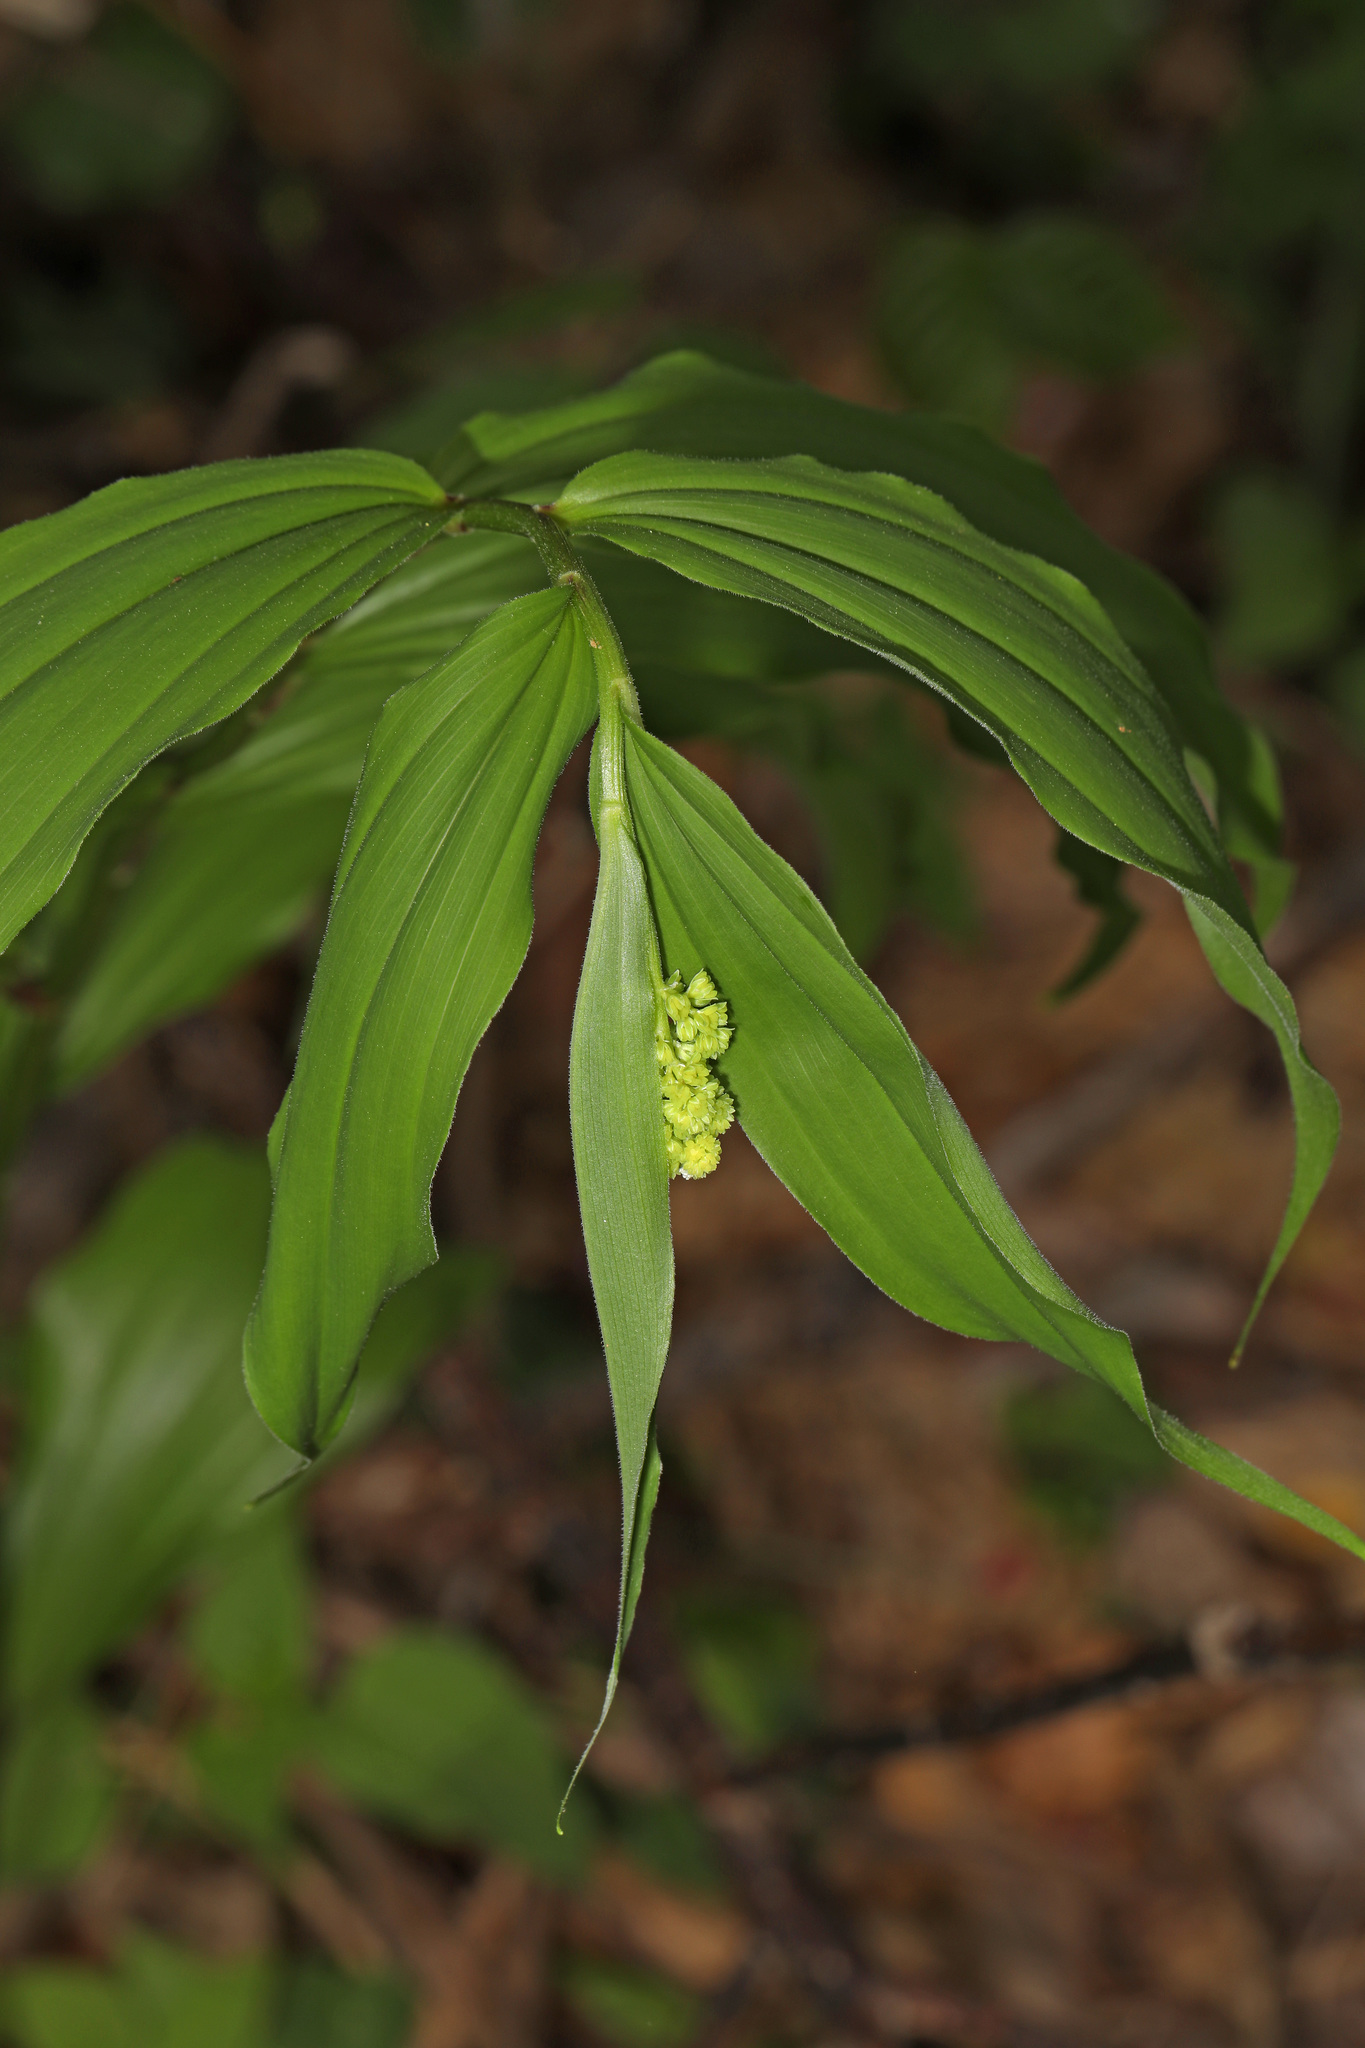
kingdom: Plantae
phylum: Tracheophyta
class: Liliopsida
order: Asparagales
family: Asparagaceae
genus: Maianthemum
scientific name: Maianthemum racemosum
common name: False spikenard
